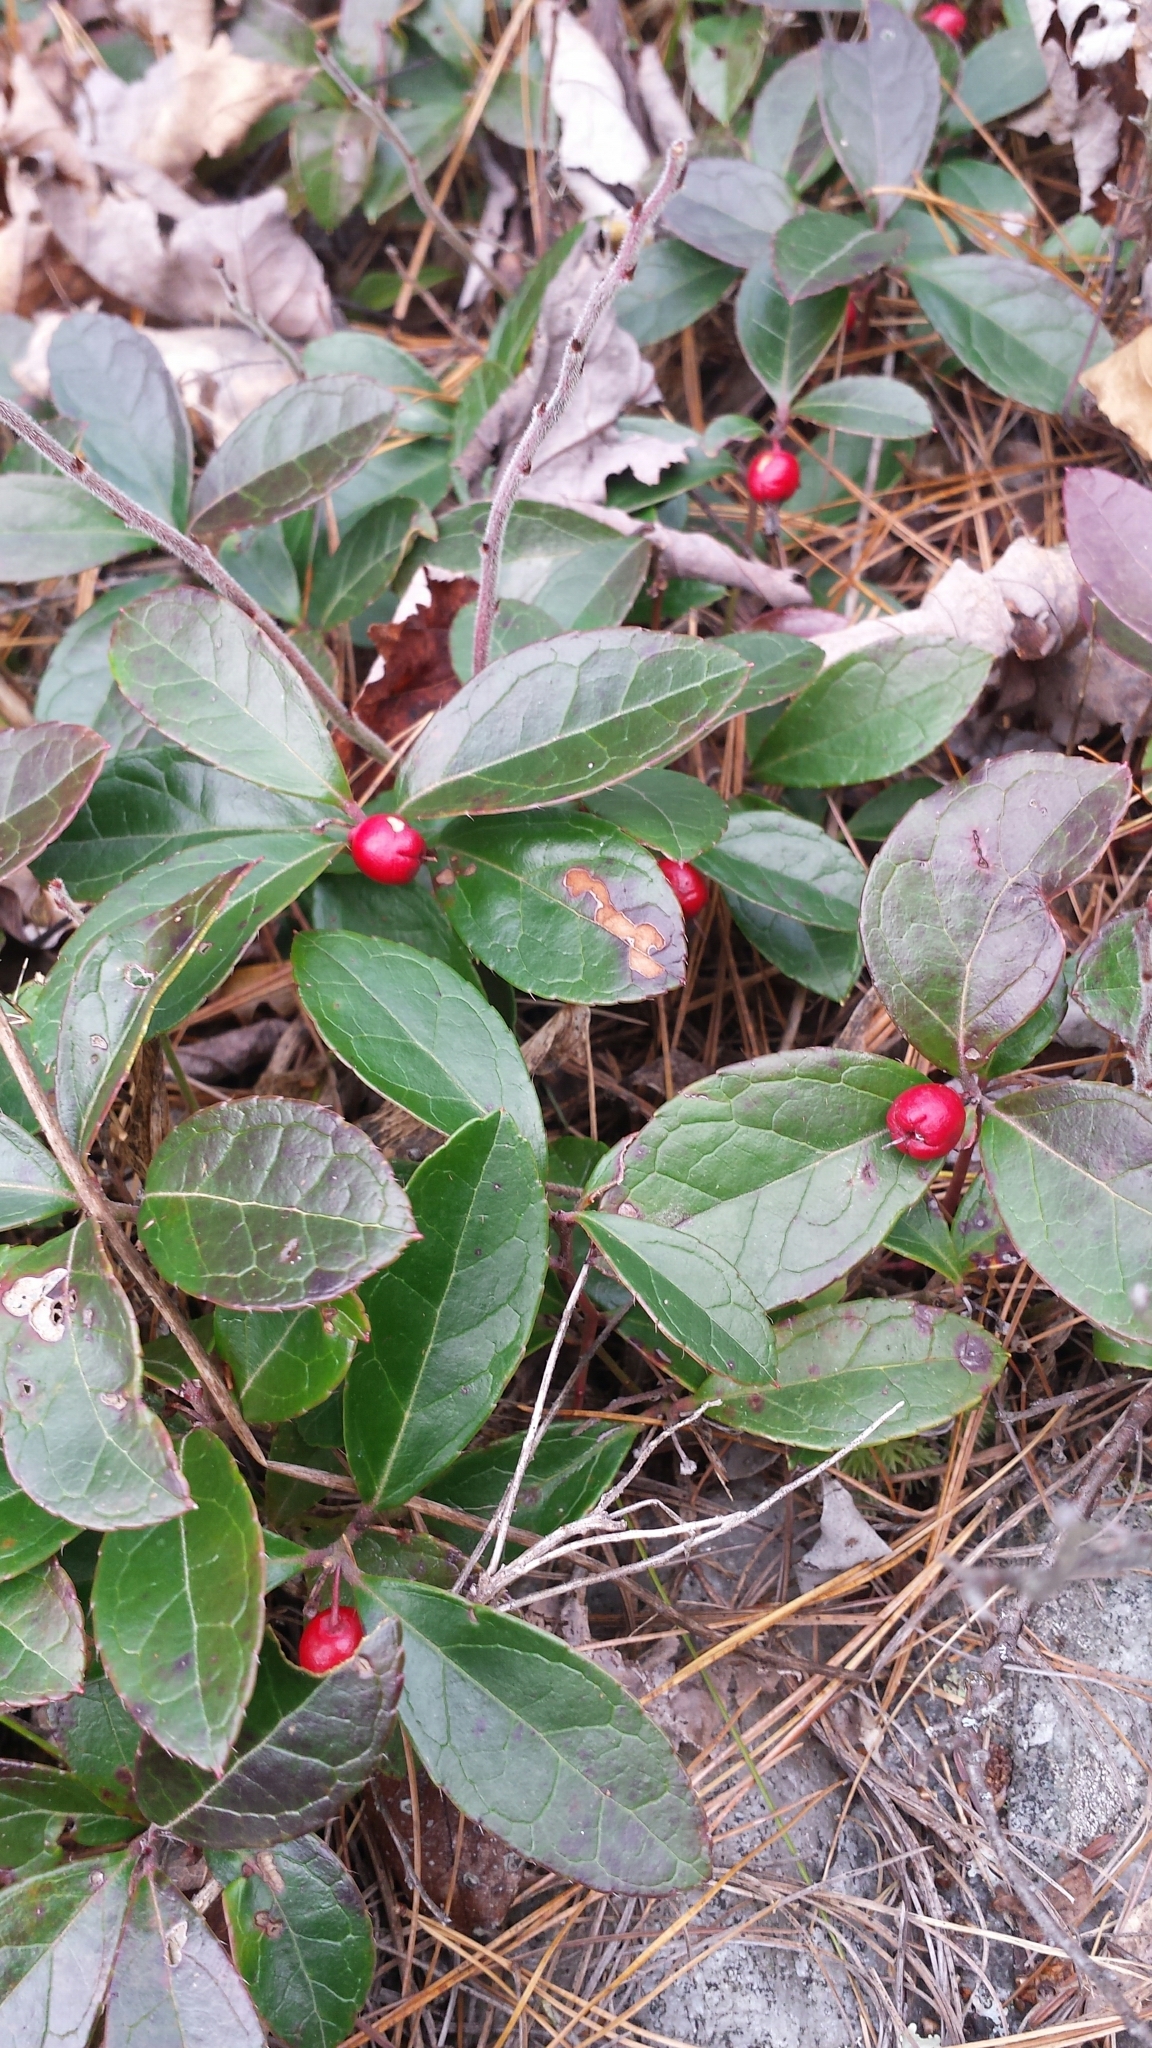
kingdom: Plantae
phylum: Tracheophyta
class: Magnoliopsida
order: Ericales
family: Ericaceae
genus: Gaultheria
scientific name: Gaultheria procumbens
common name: Checkerberry
